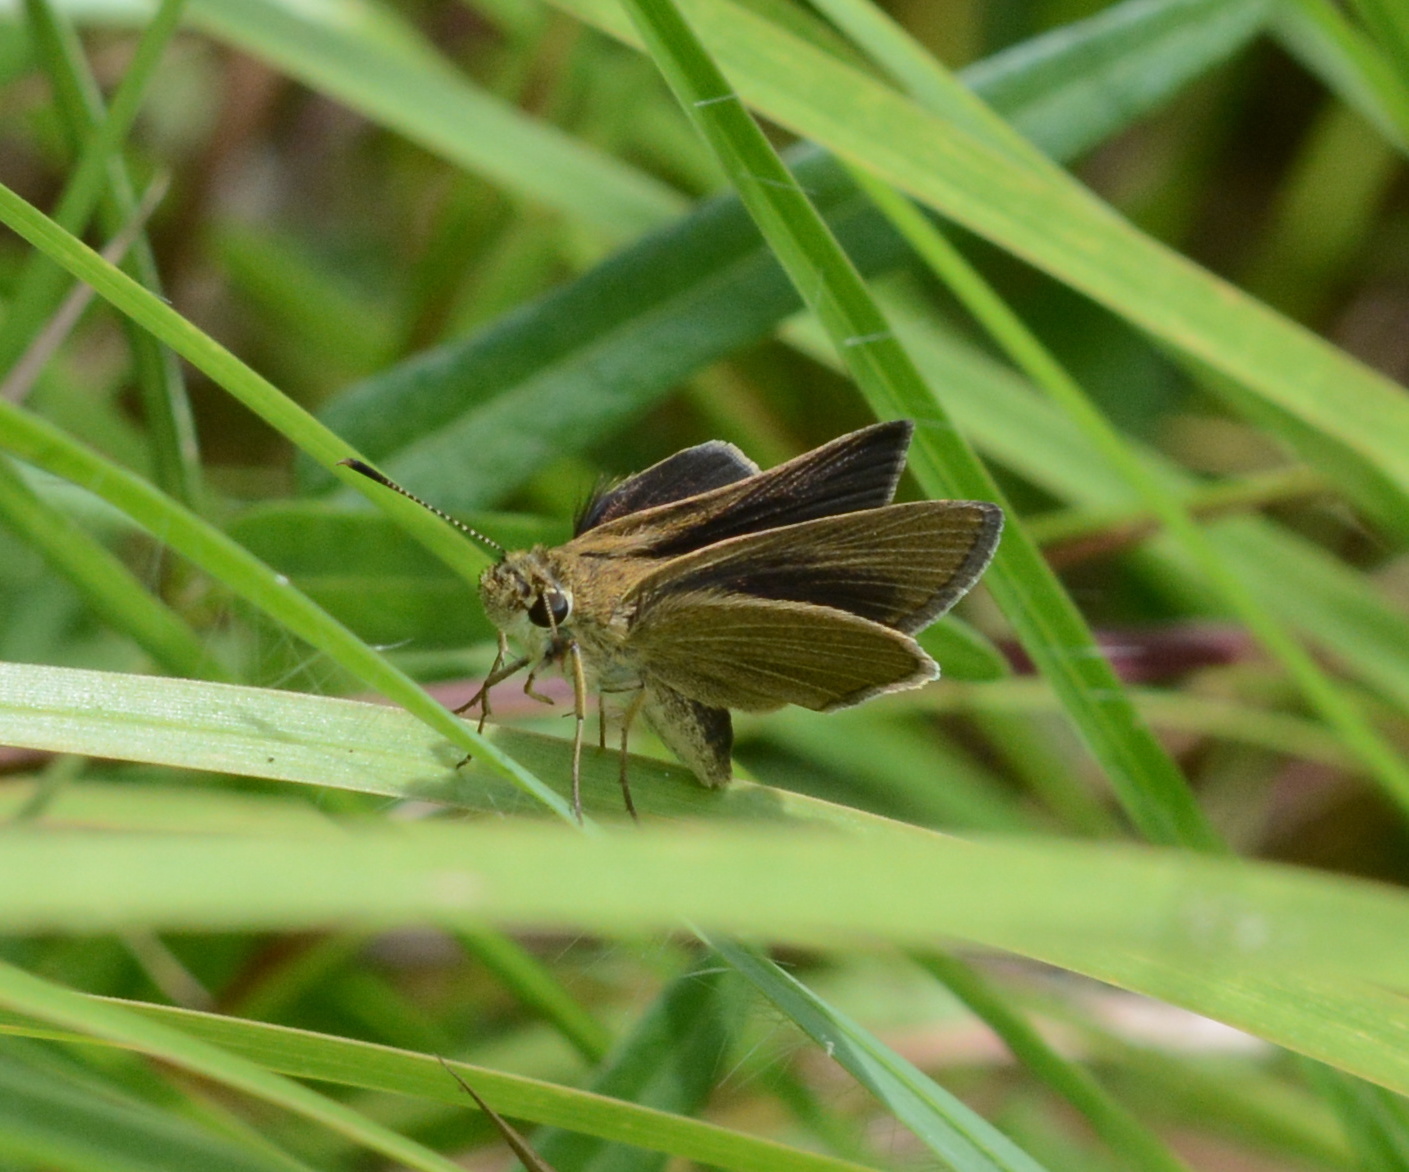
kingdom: Animalia
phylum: Arthropoda
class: Insecta
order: Lepidoptera
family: Hesperiidae
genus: Nastra
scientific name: Nastra lherminier
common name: Swarthy skipper
